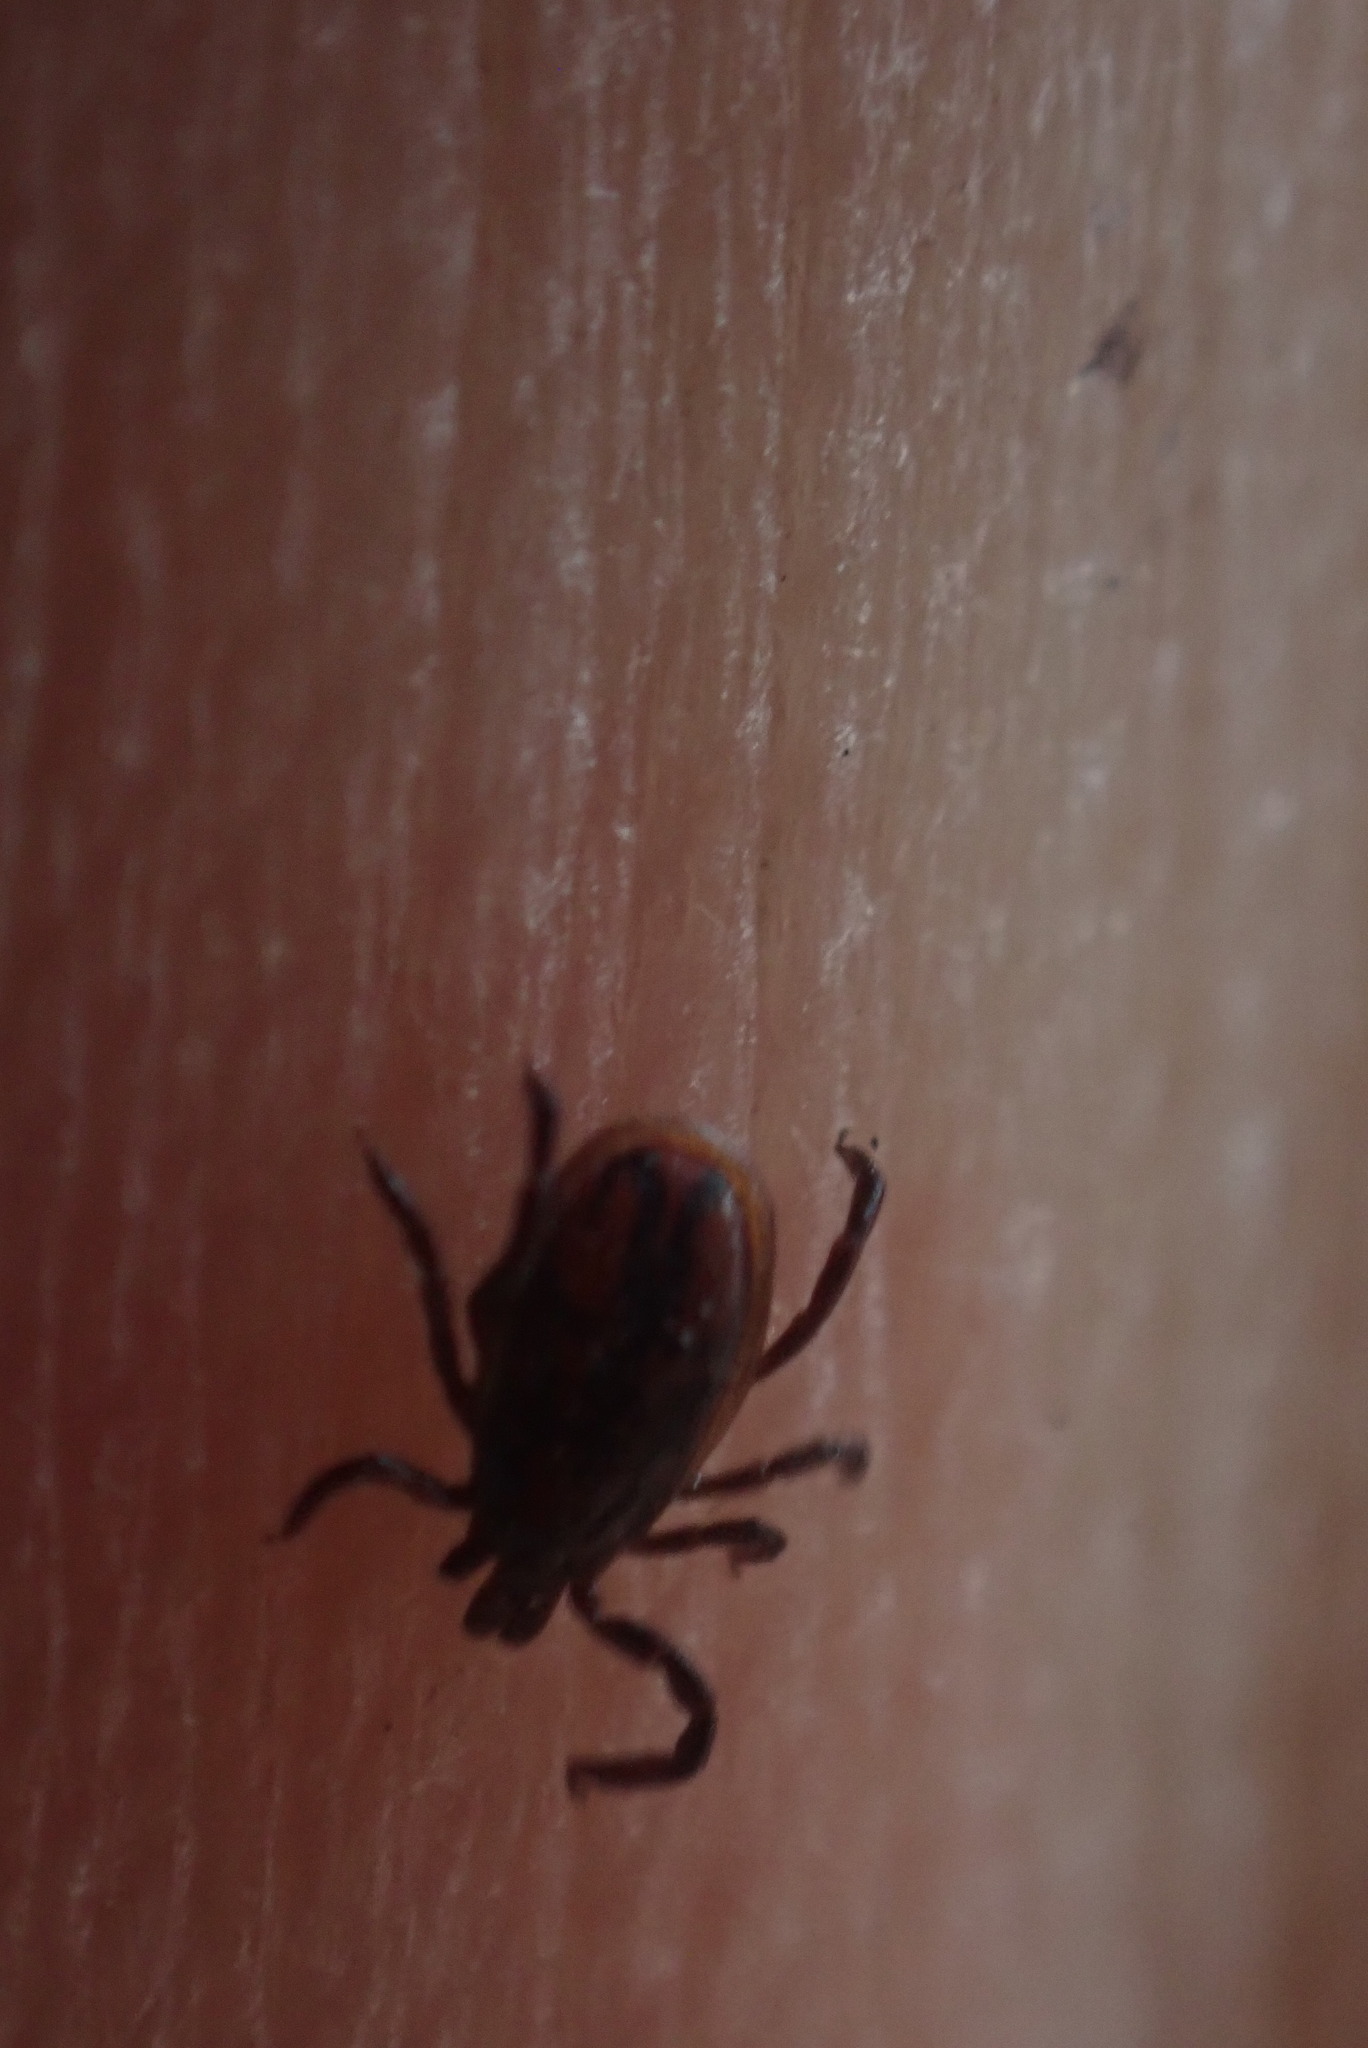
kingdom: Animalia
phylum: Arthropoda
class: Arachnida
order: Ixodida
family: Ixodidae
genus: Ixodes
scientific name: Ixodes pacificus
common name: California black-legged tick
